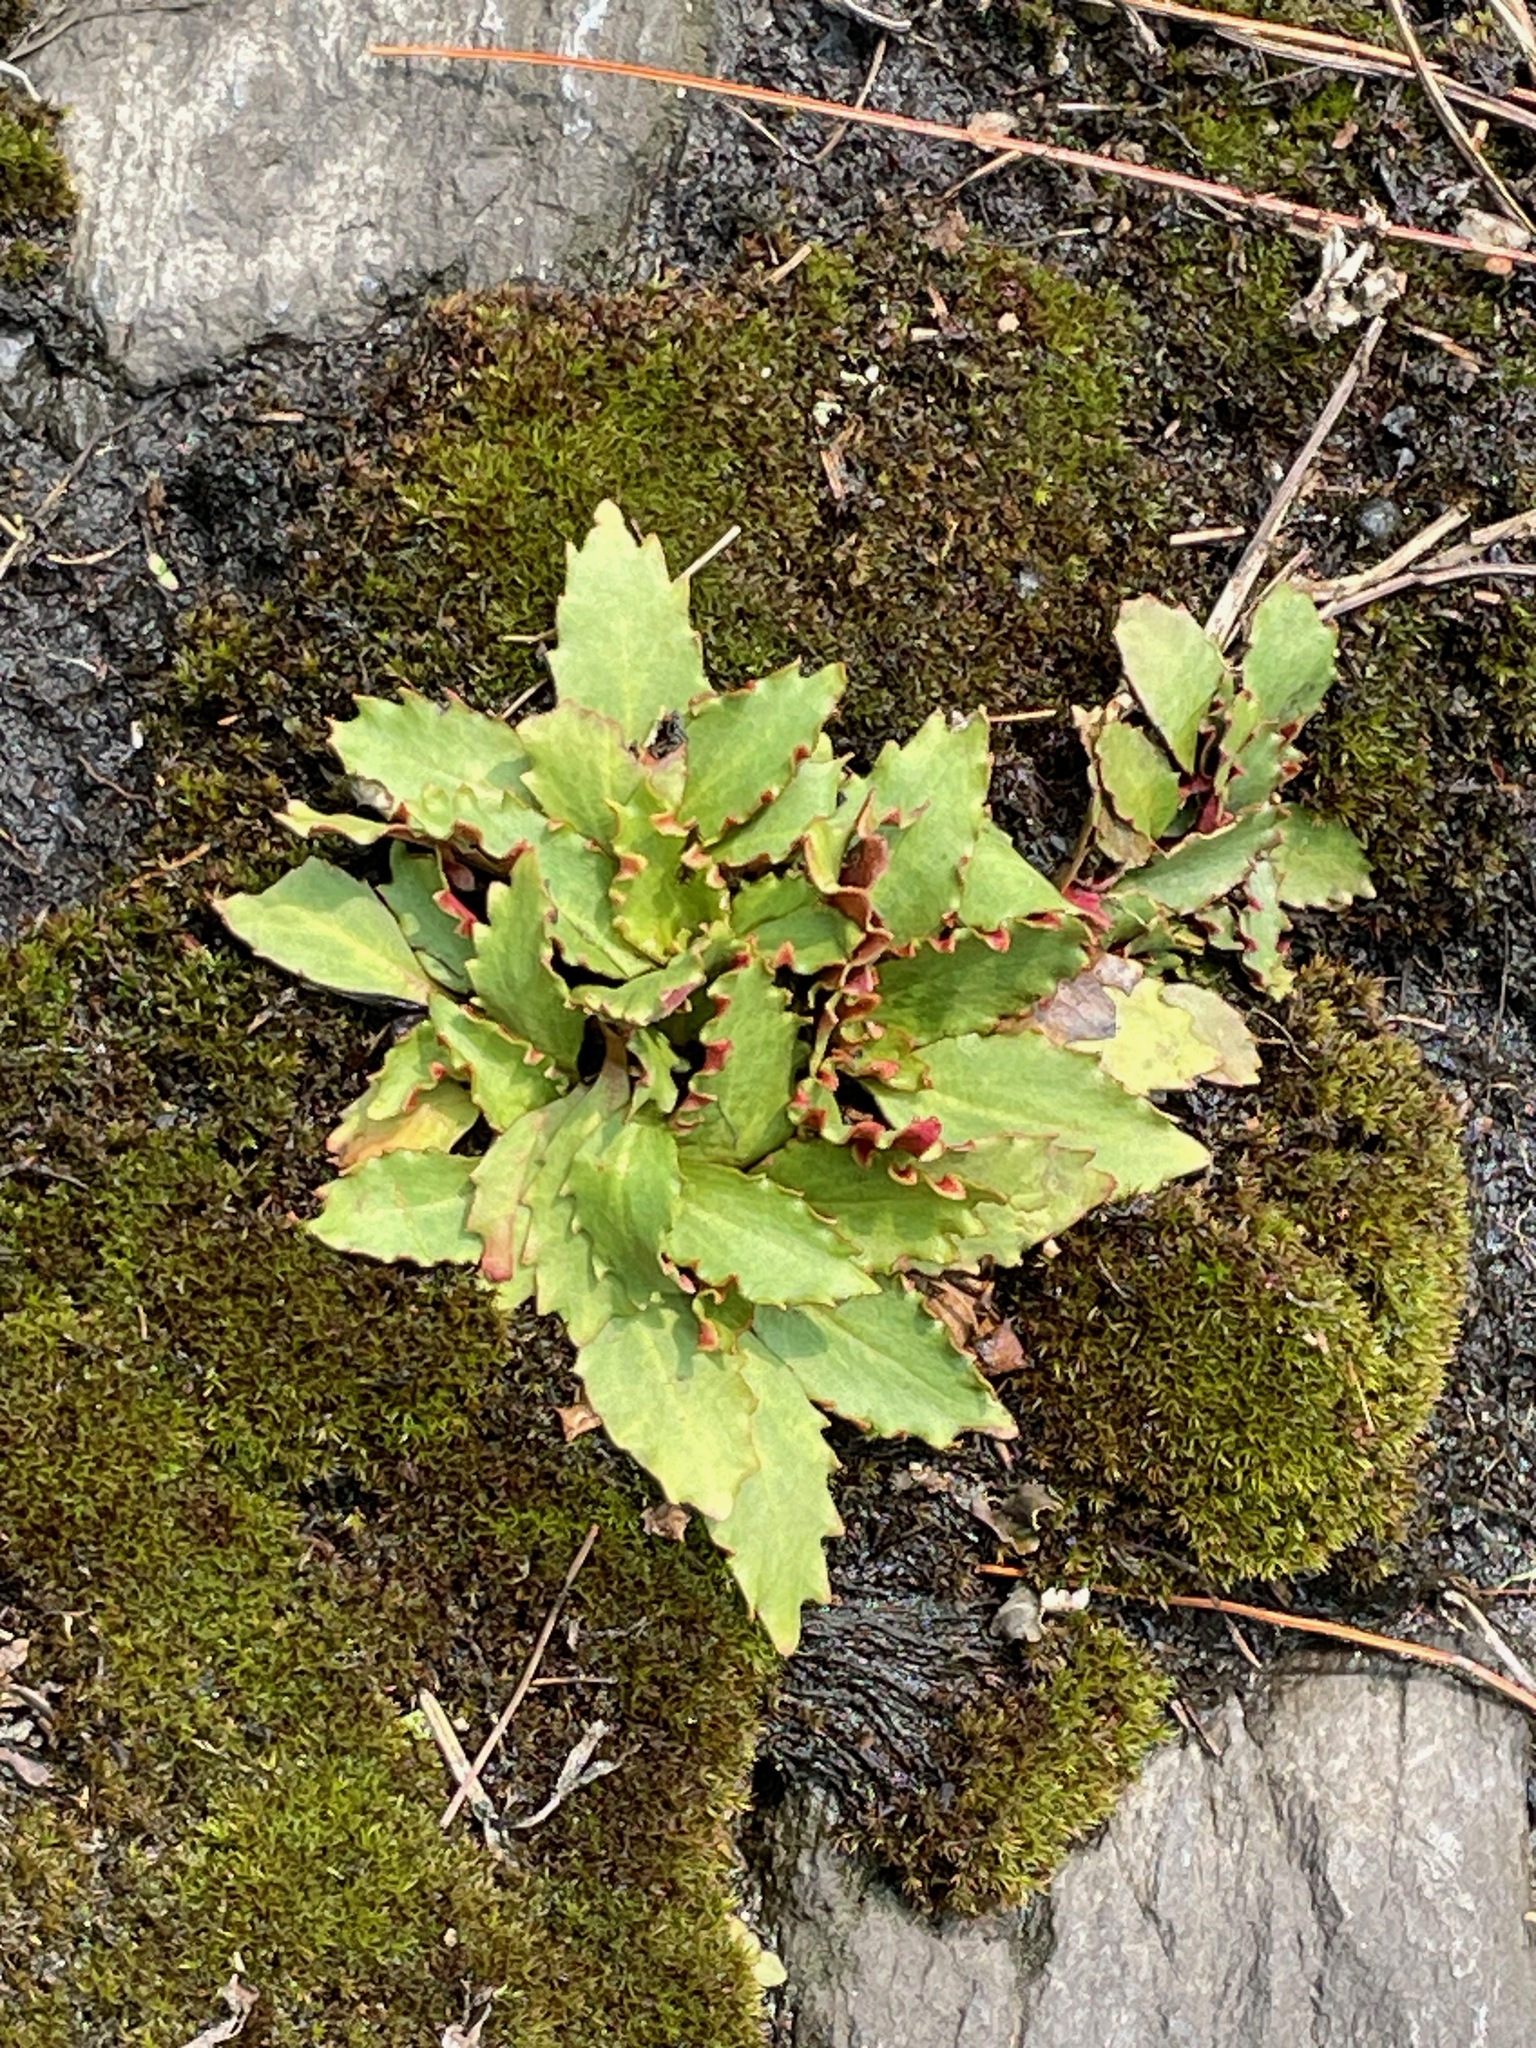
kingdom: Plantae
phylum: Tracheophyta
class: Magnoliopsida
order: Saxifragales
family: Saxifragaceae
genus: Micranthes
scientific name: Micranthes virginiensis
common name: Early saxifrage
